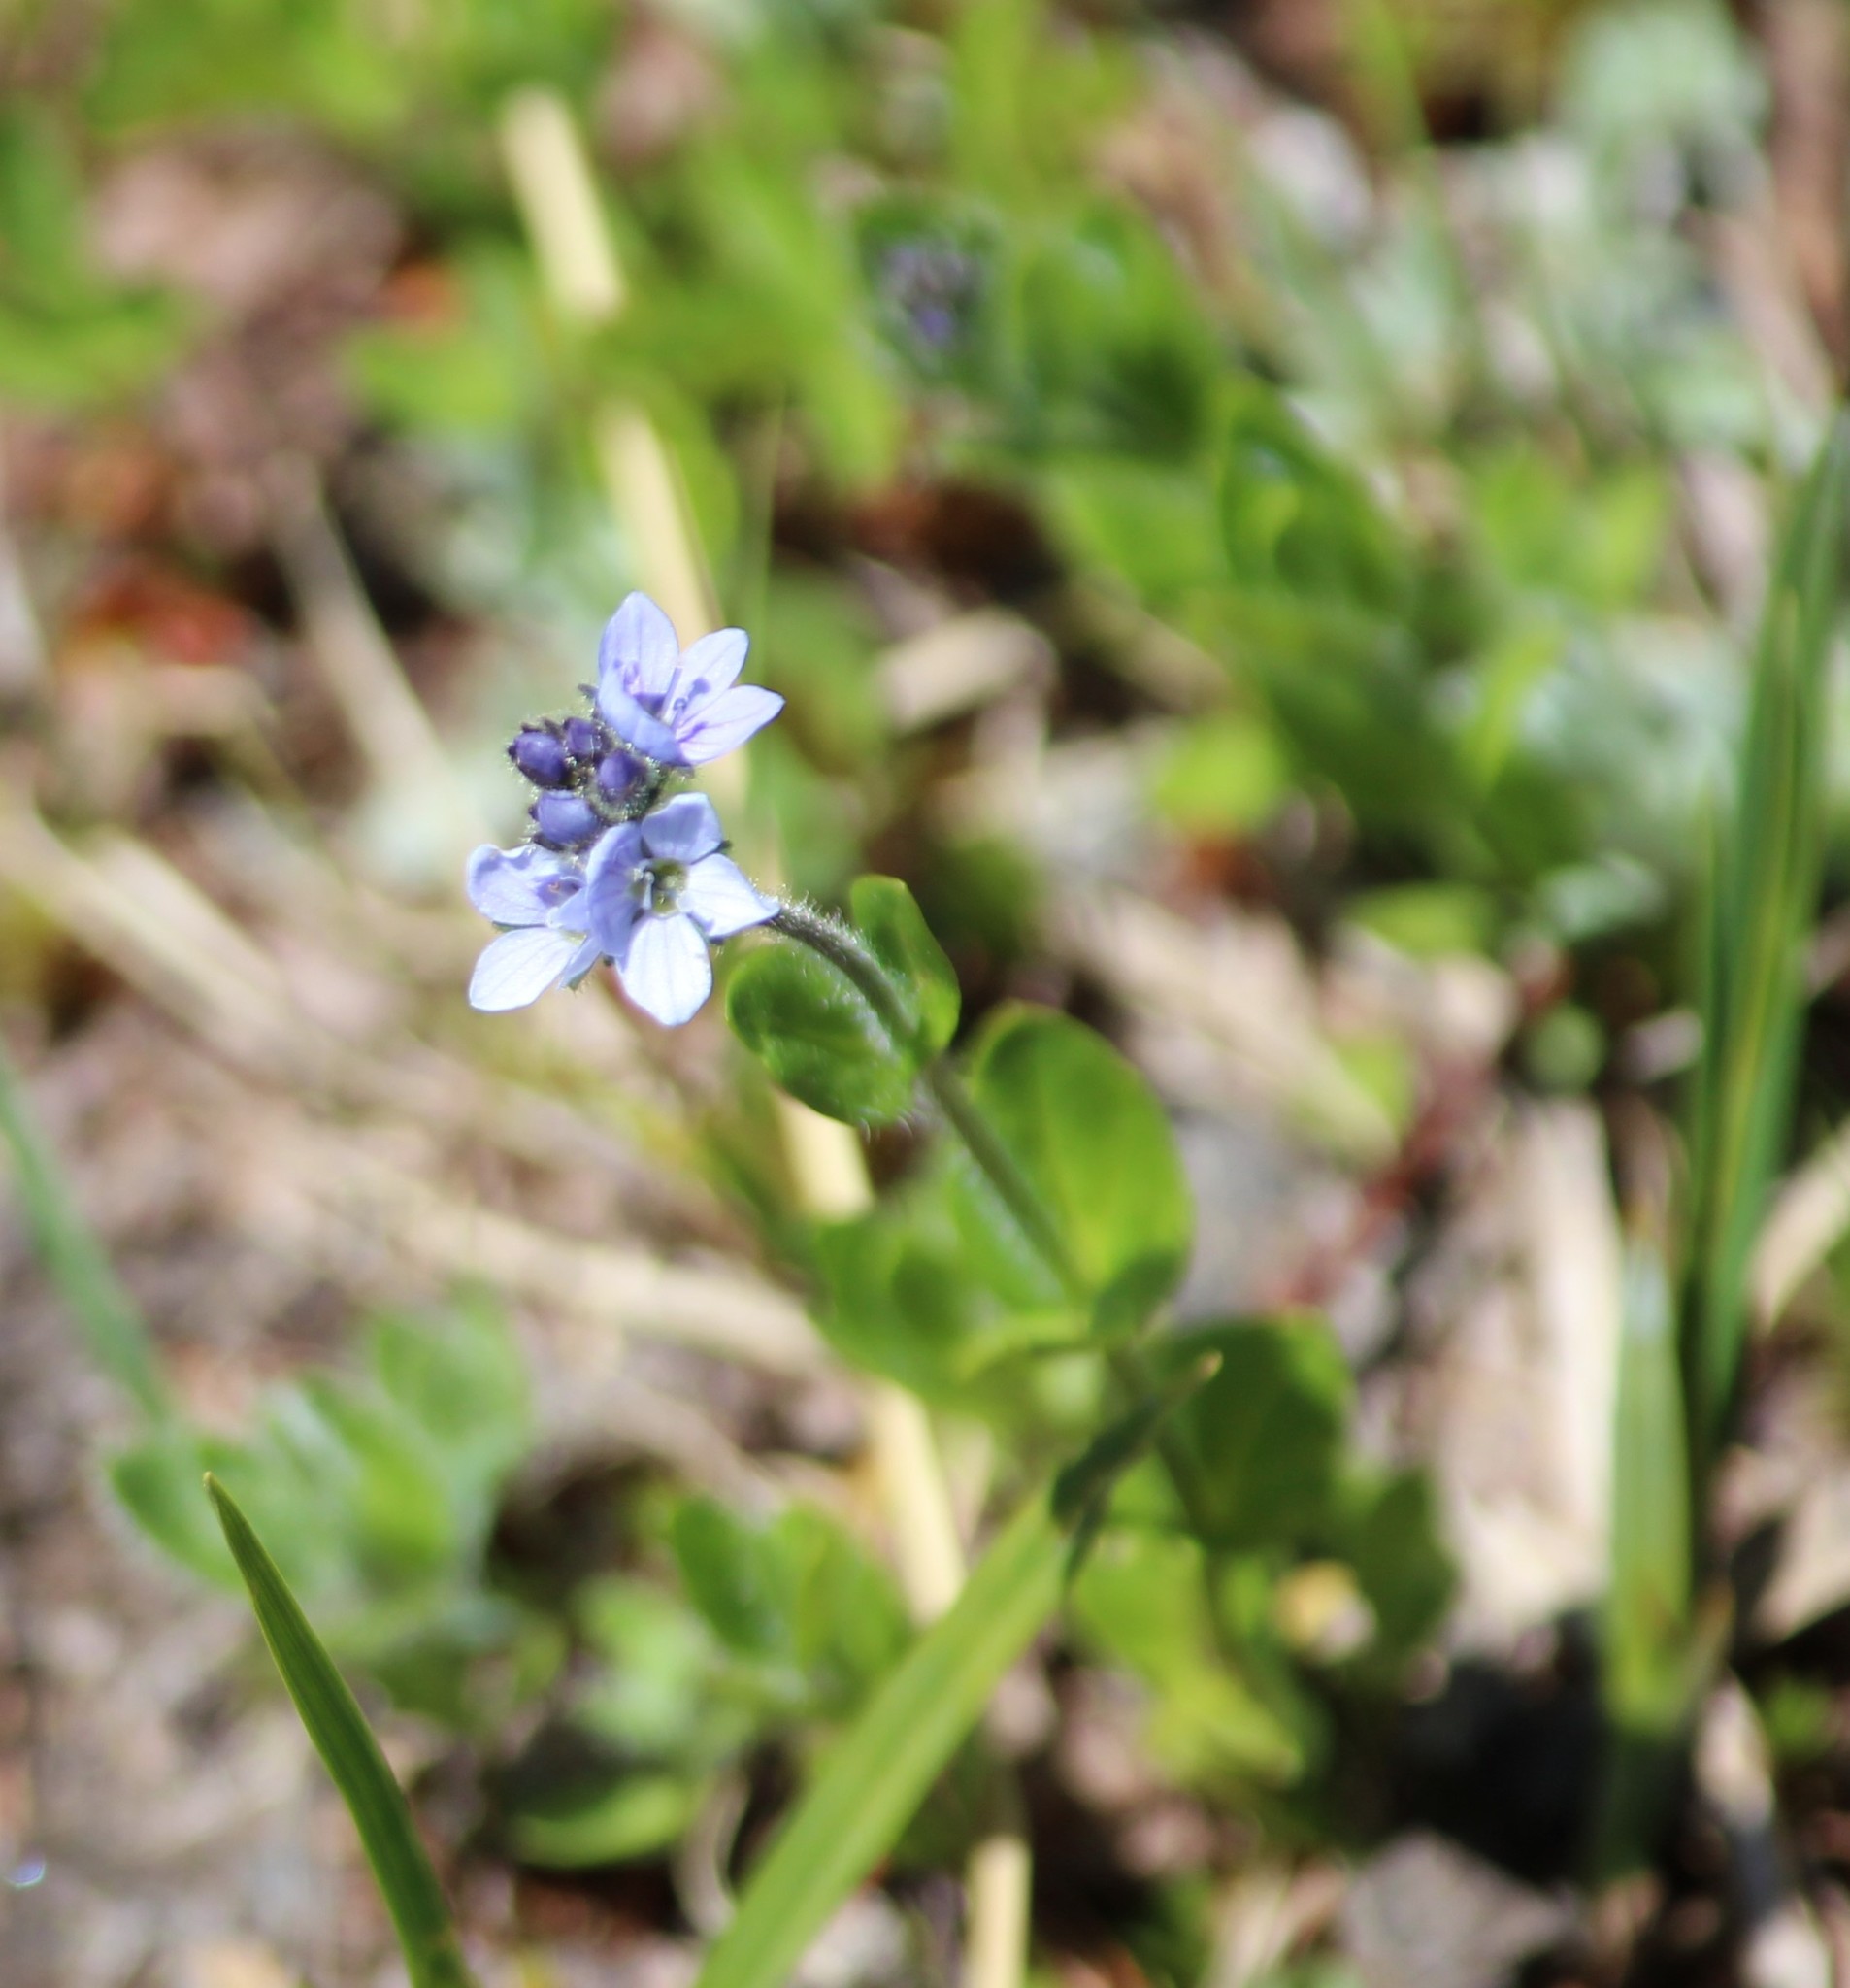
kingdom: Plantae
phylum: Tracheophyta
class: Magnoliopsida
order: Lamiales
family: Plantaginaceae
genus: Veronica
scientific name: Veronica wormskjoldii
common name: American alpine speedwell
